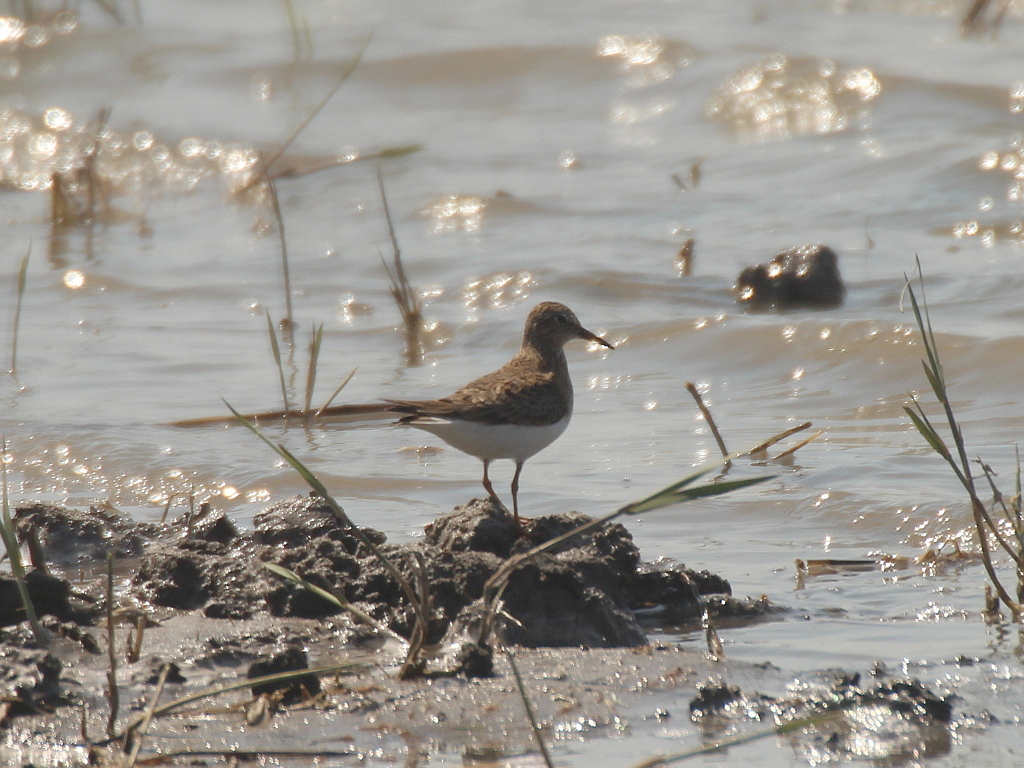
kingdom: Animalia
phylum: Chordata
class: Aves
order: Charadriiformes
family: Scolopacidae
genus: Calidris
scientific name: Calidris temminckii
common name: Temminck's stint
